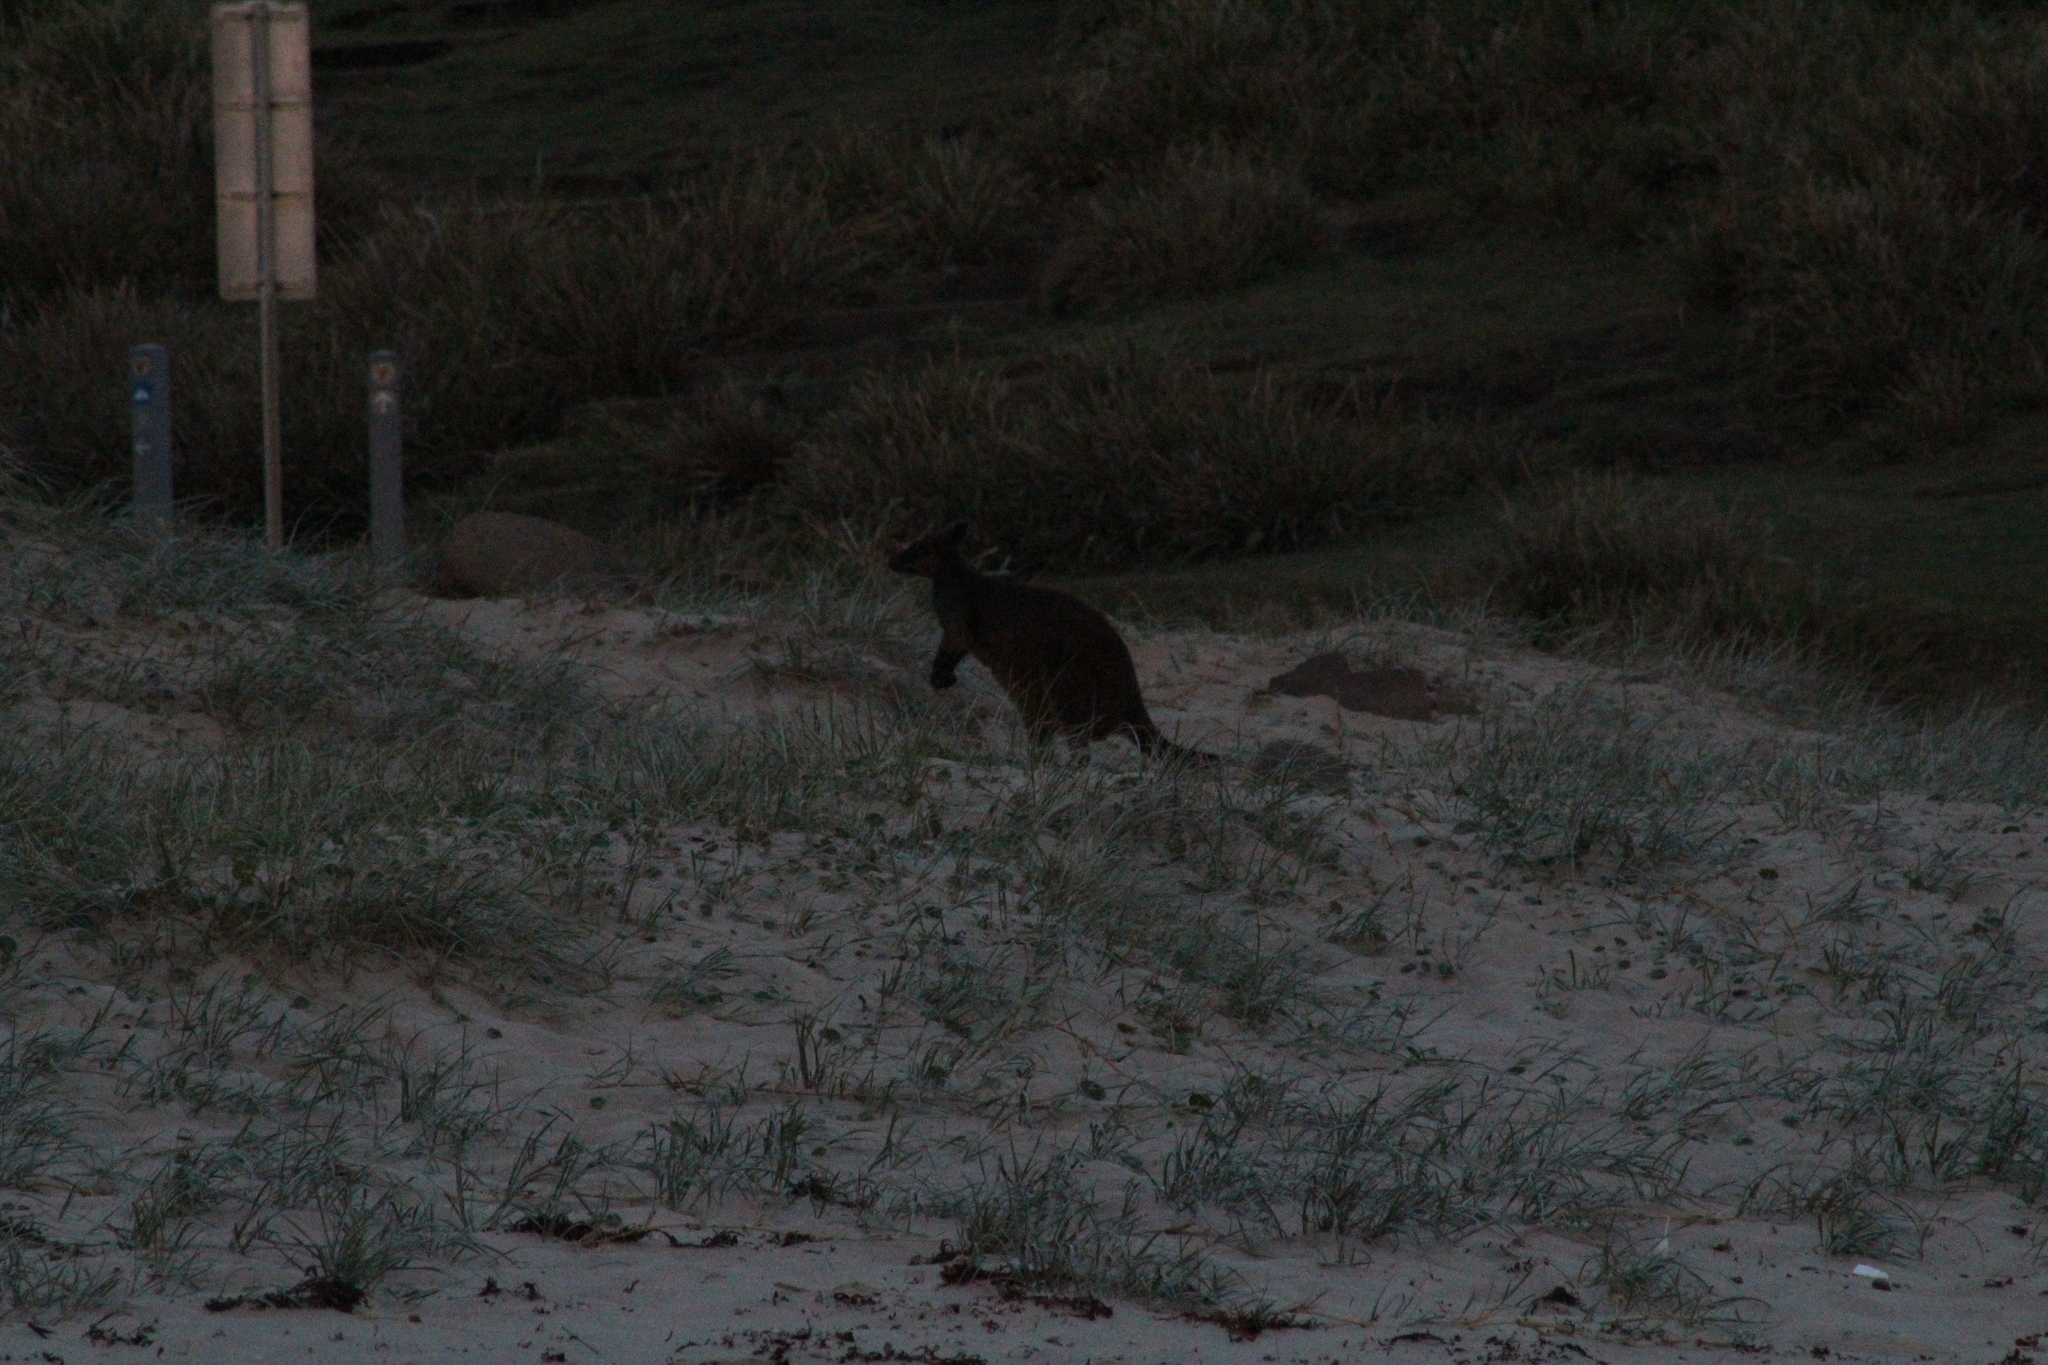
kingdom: Animalia
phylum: Chordata
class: Mammalia
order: Diprotodontia
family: Macropodidae
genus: Wallabia
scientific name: Wallabia bicolor
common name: Swamp wallaby
